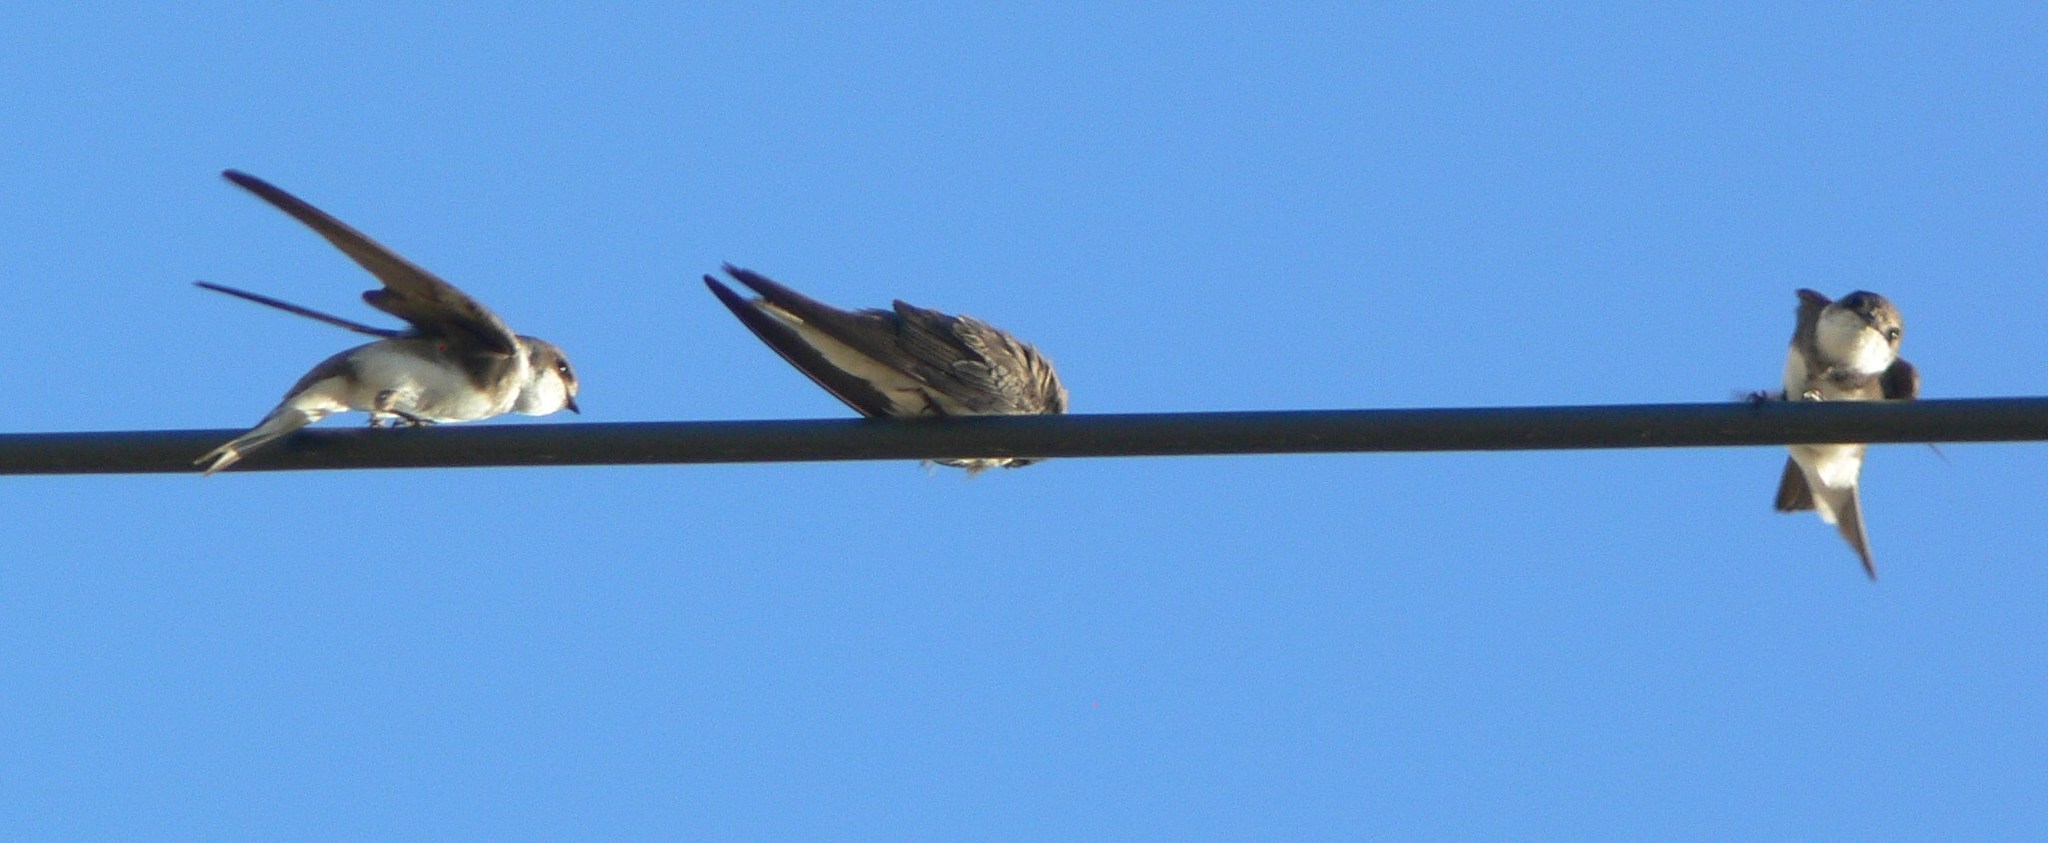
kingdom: Animalia
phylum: Chordata
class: Aves
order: Passeriformes
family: Hirundinidae
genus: Riparia
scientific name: Riparia riparia
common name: Sand martin
